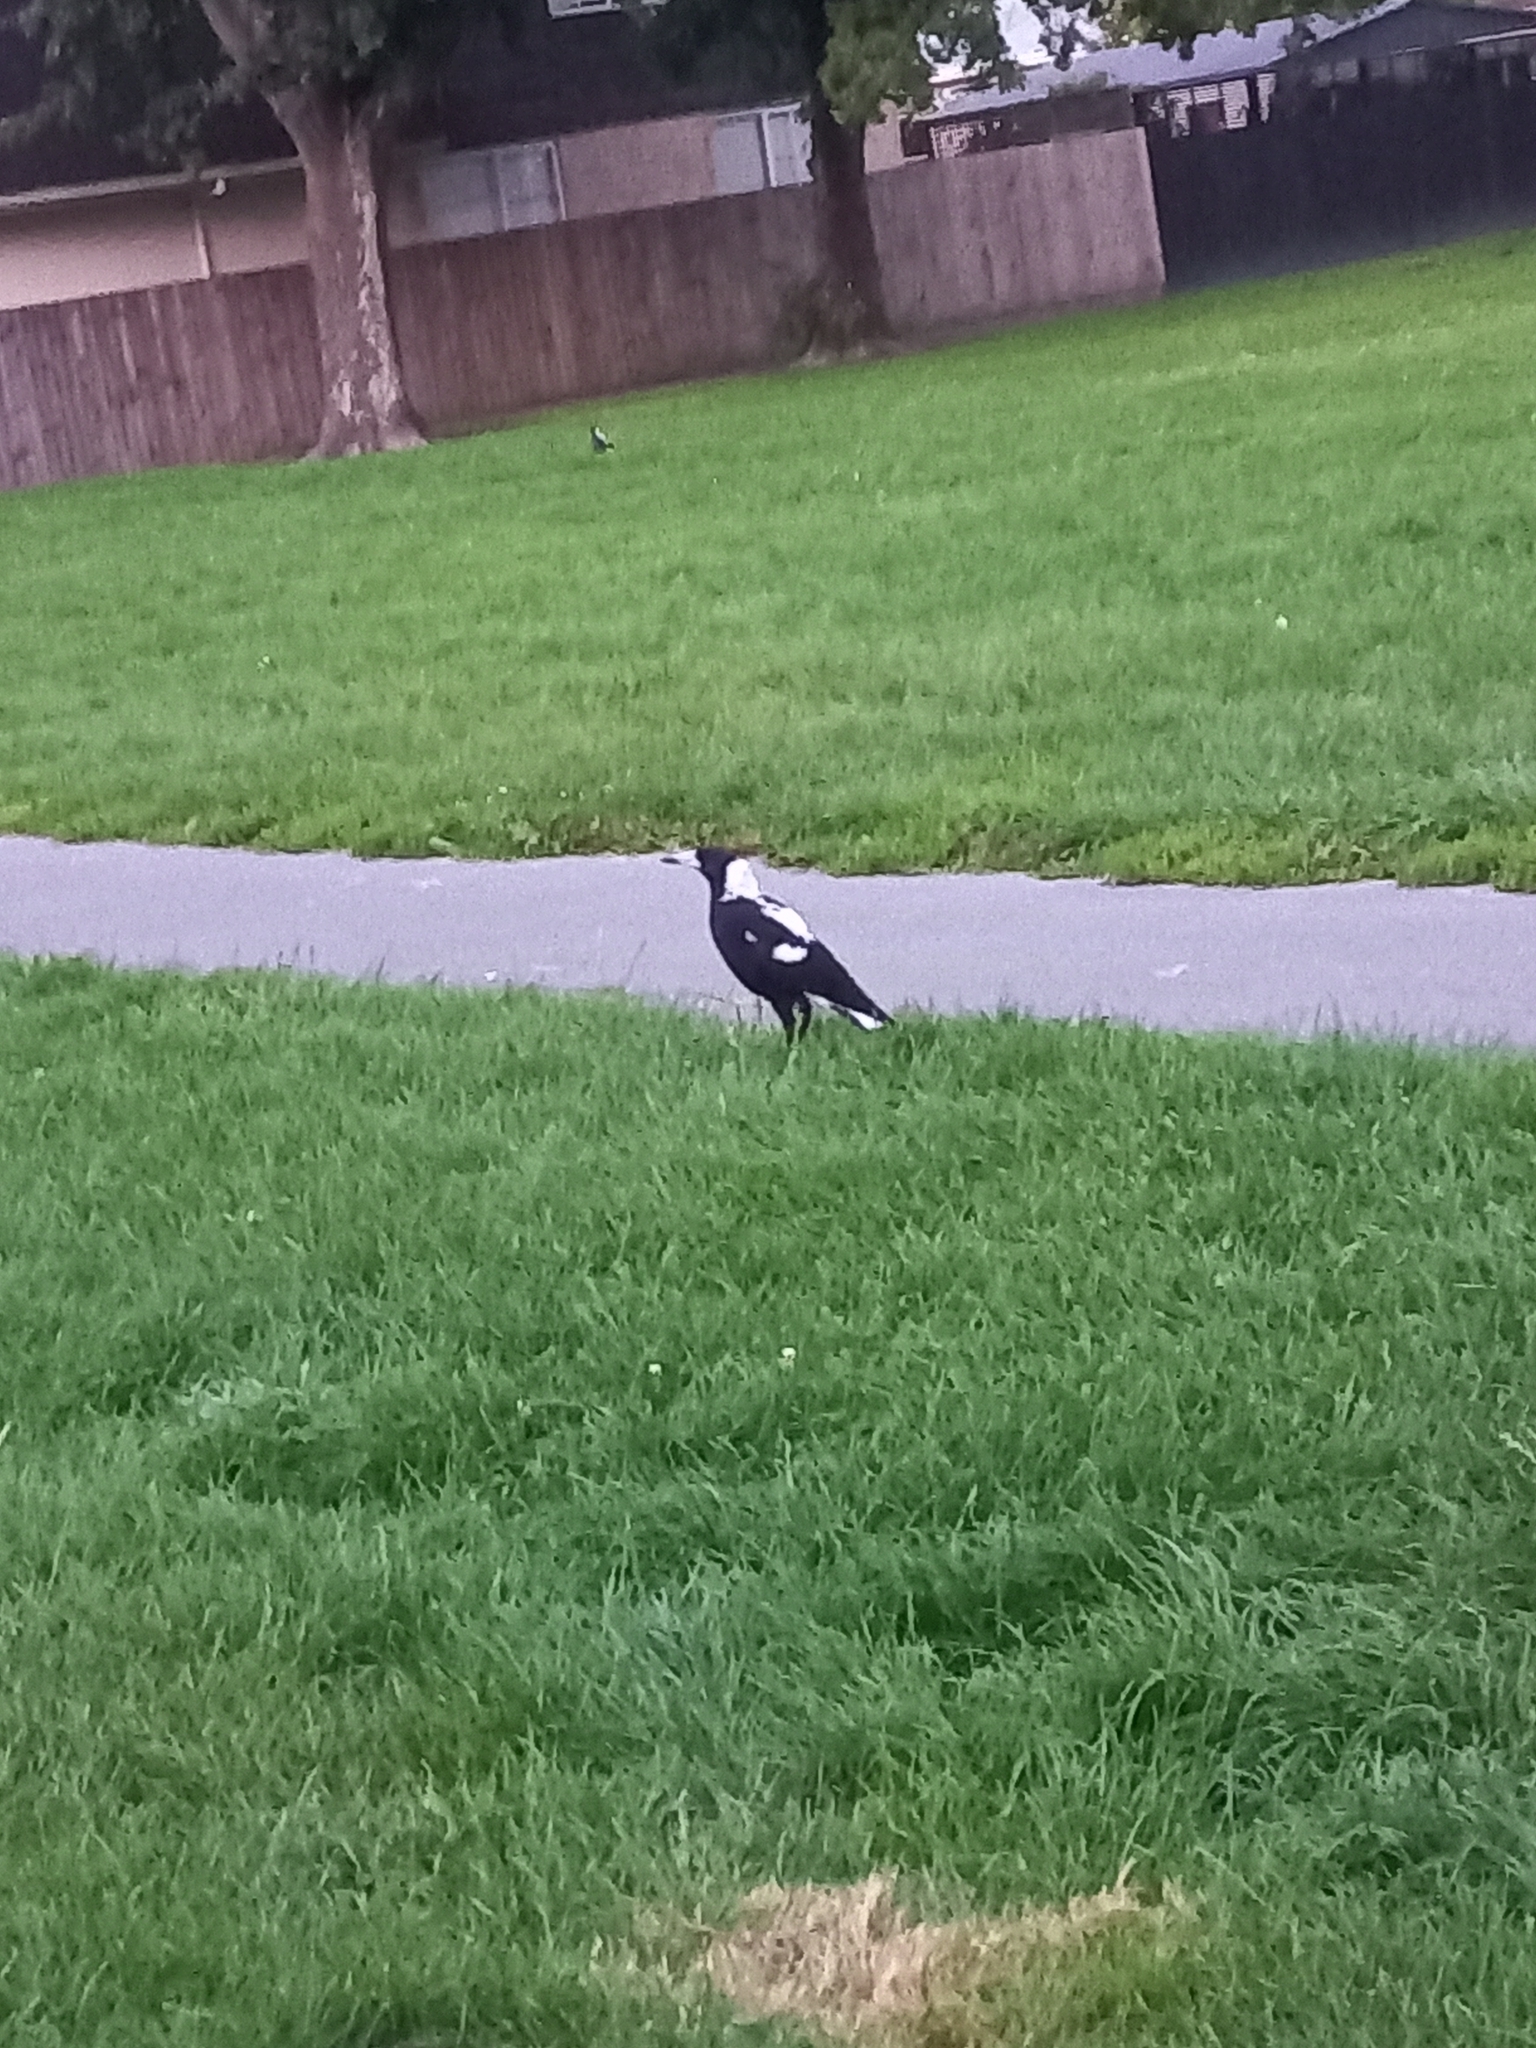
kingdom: Animalia
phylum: Chordata
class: Aves
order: Passeriformes
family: Cracticidae
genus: Gymnorhina
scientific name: Gymnorhina tibicen
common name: Australian magpie
